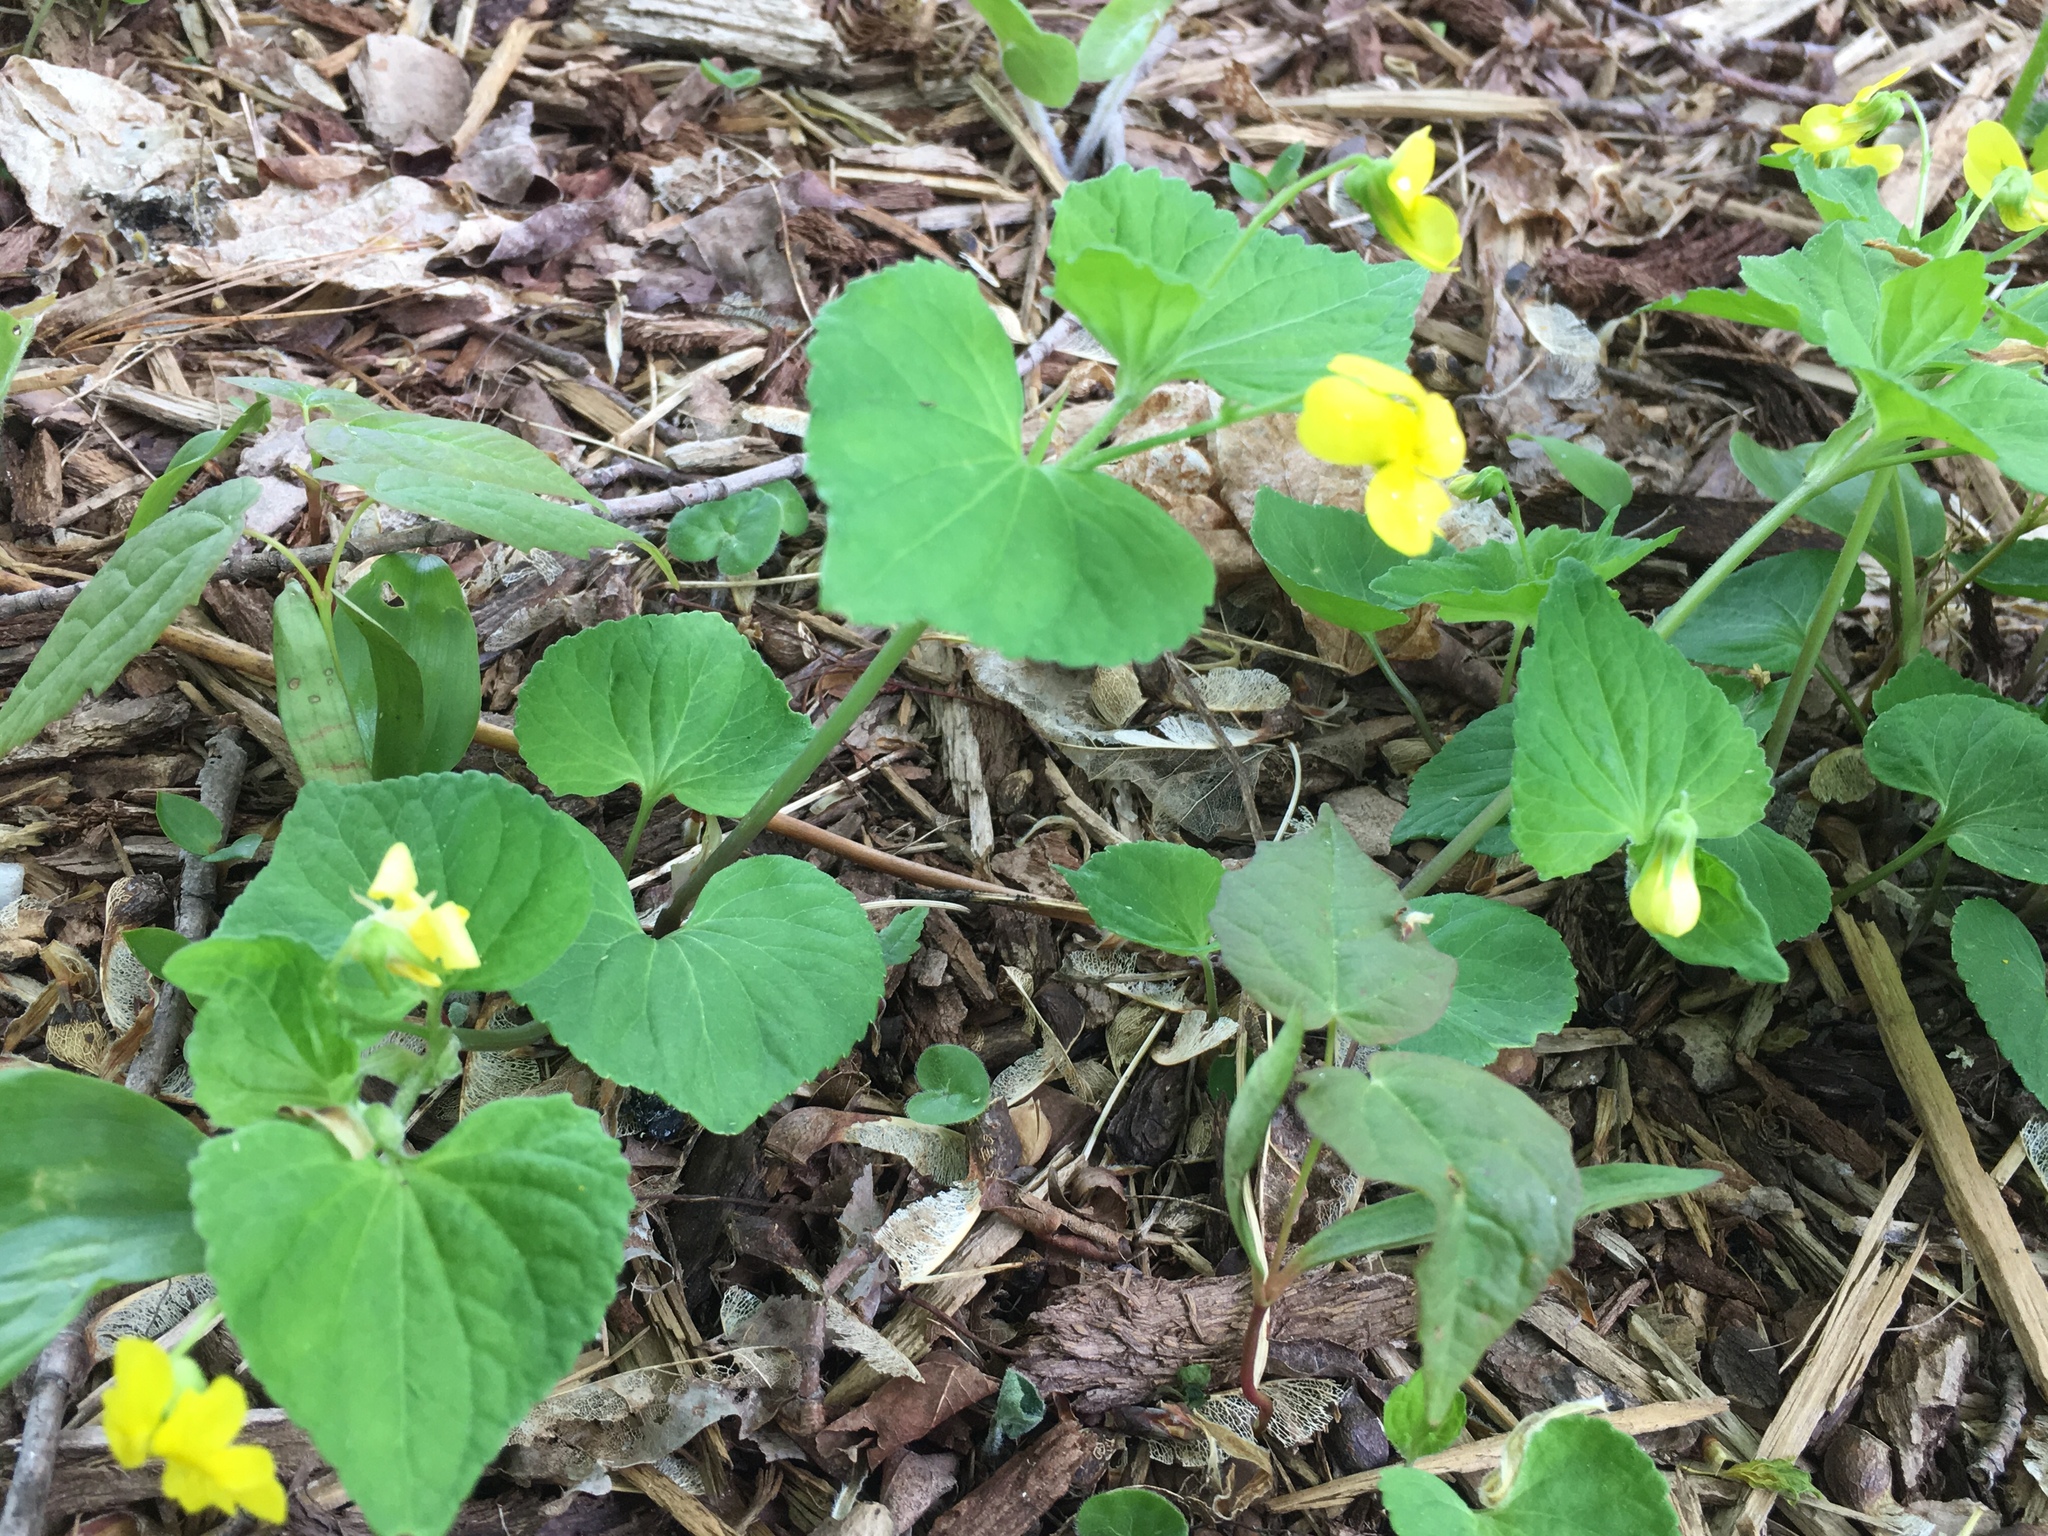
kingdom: Plantae
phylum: Tracheophyta
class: Magnoliopsida
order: Malpighiales
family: Violaceae
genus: Viola
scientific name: Viola eriocarpa
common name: Smooth yellow violet
